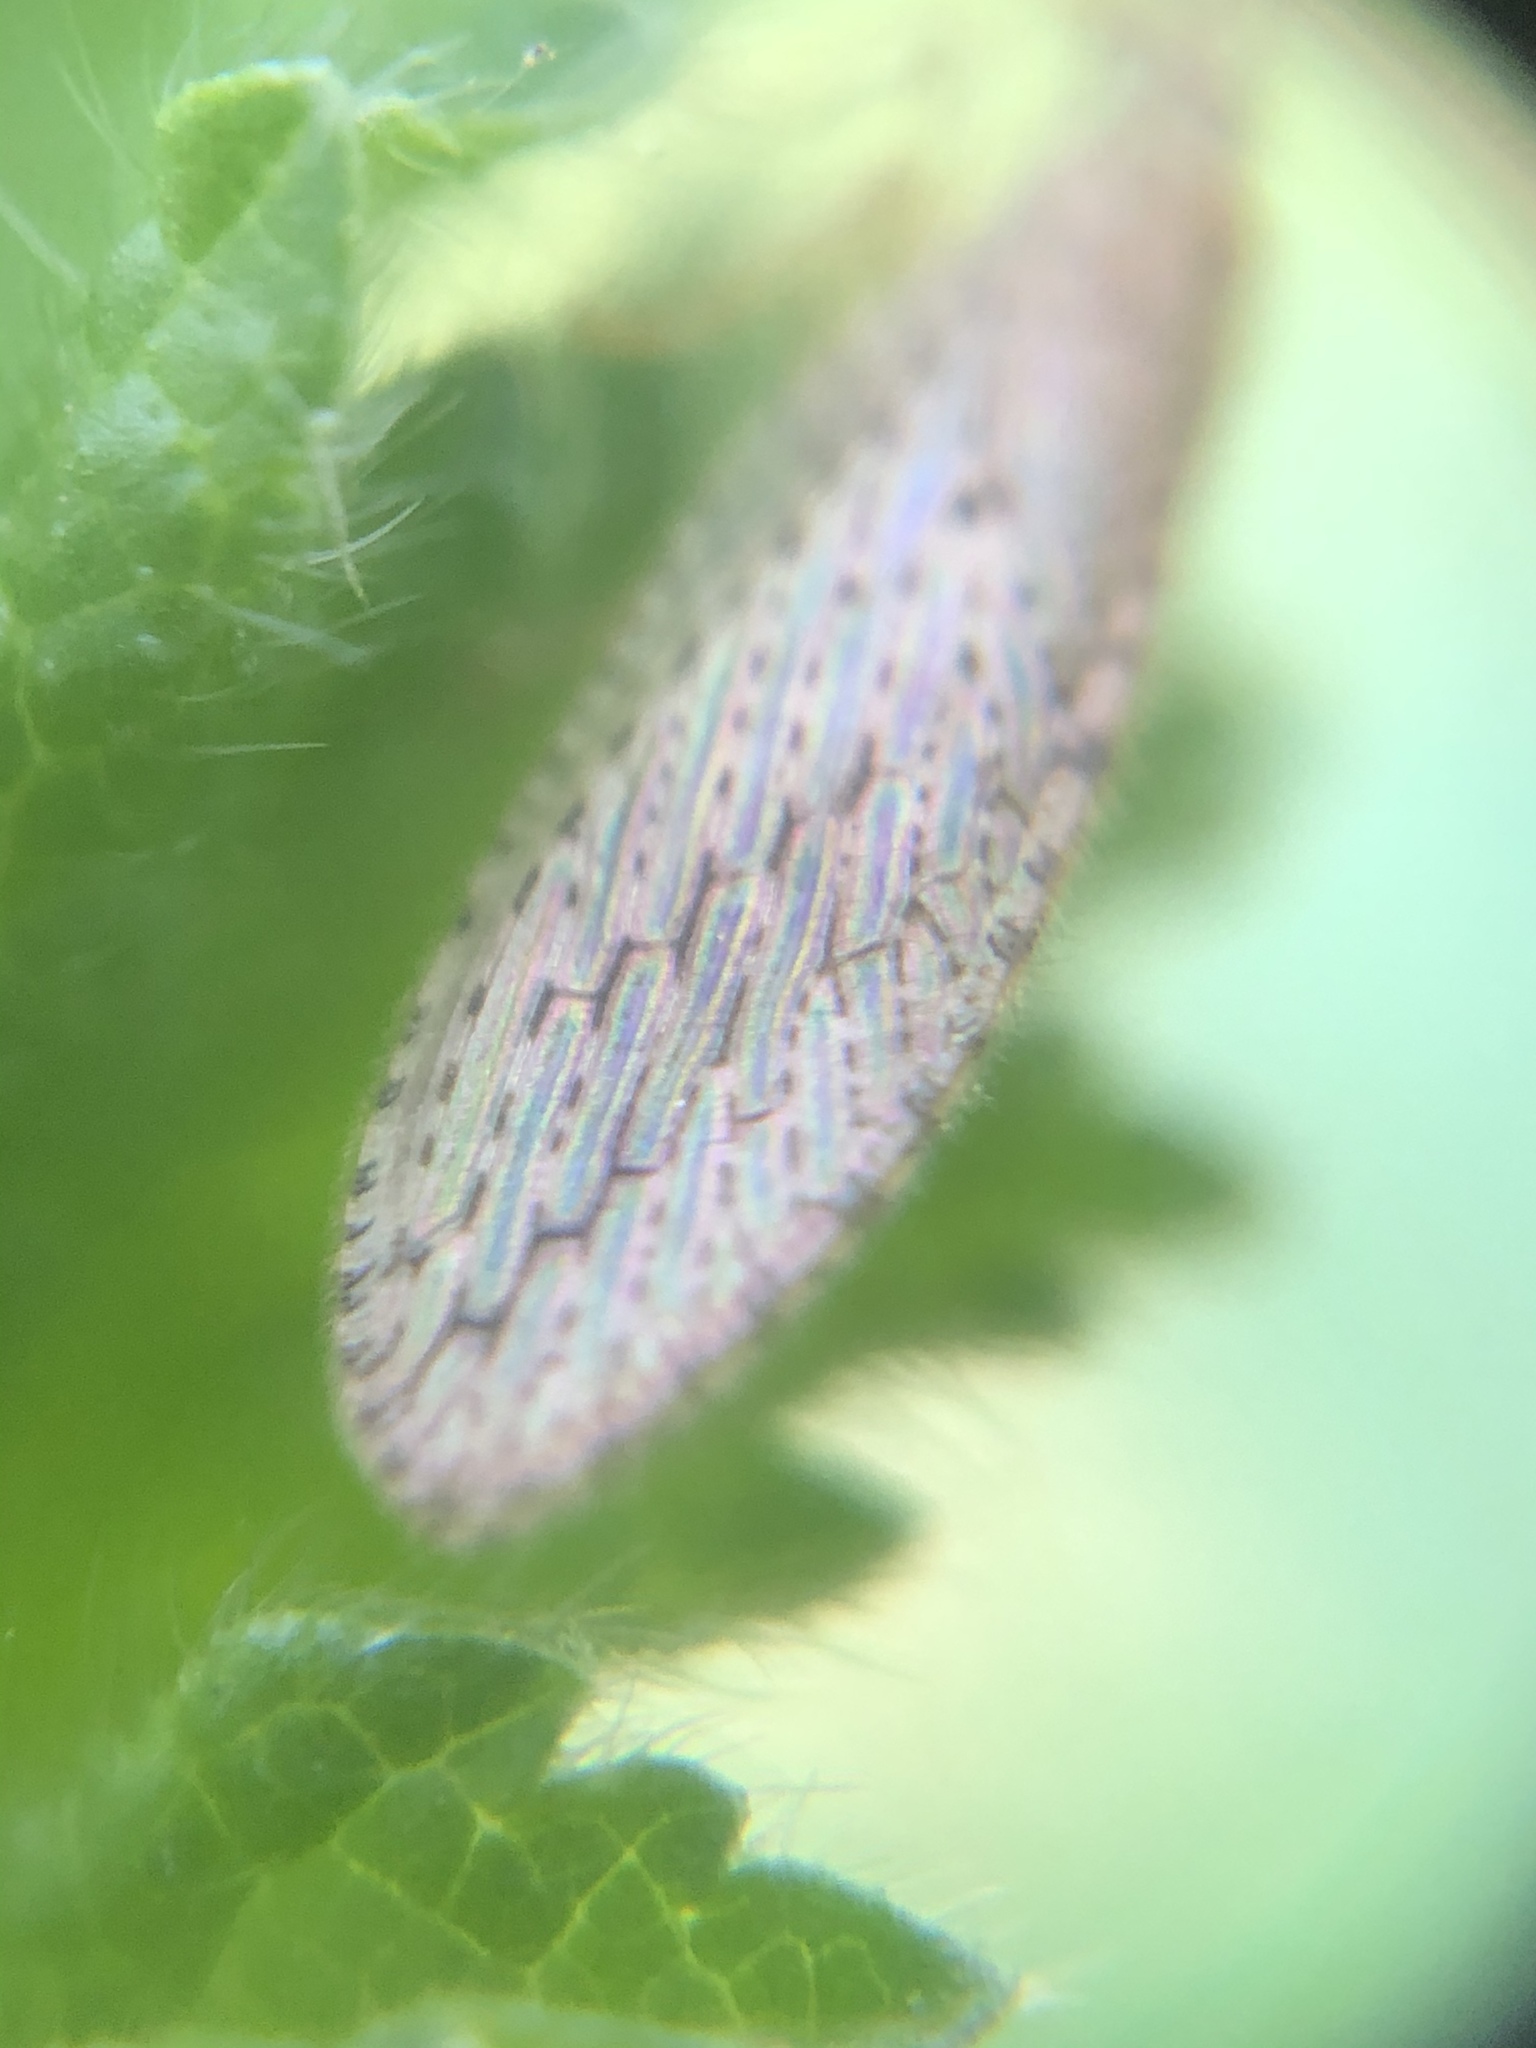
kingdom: Animalia
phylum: Arthropoda
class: Insecta
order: Neuroptera
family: Hemerobiidae
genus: Micromus
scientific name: Micromus tasmaniae
